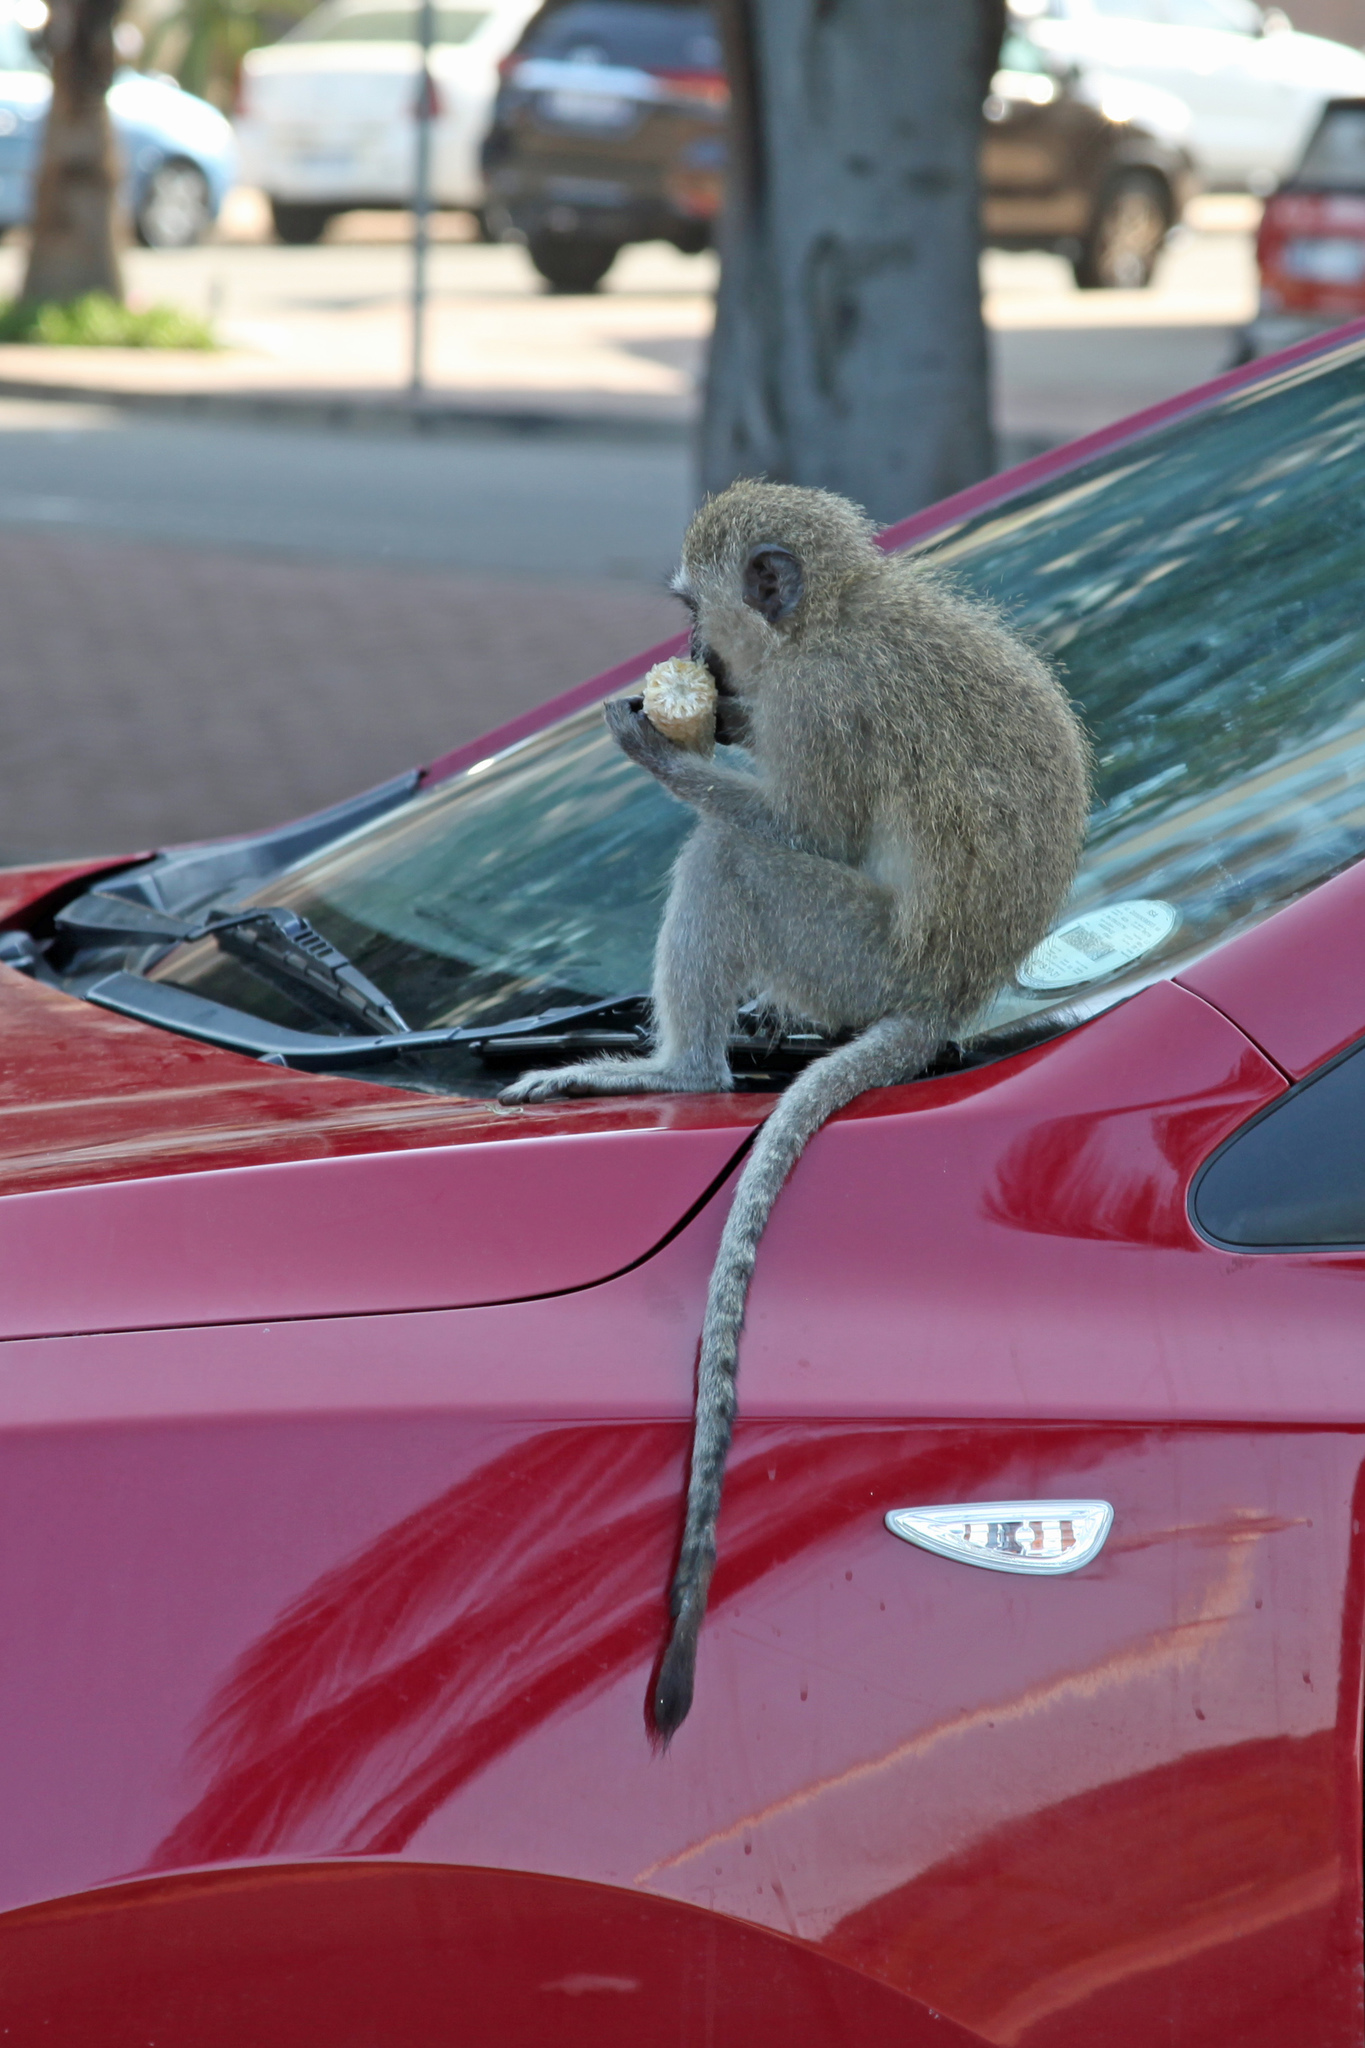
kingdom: Animalia
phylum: Chordata
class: Mammalia
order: Primates
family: Cercopithecidae
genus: Chlorocebus
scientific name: Chlorocebus pygerythrus
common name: Vervet monkey
